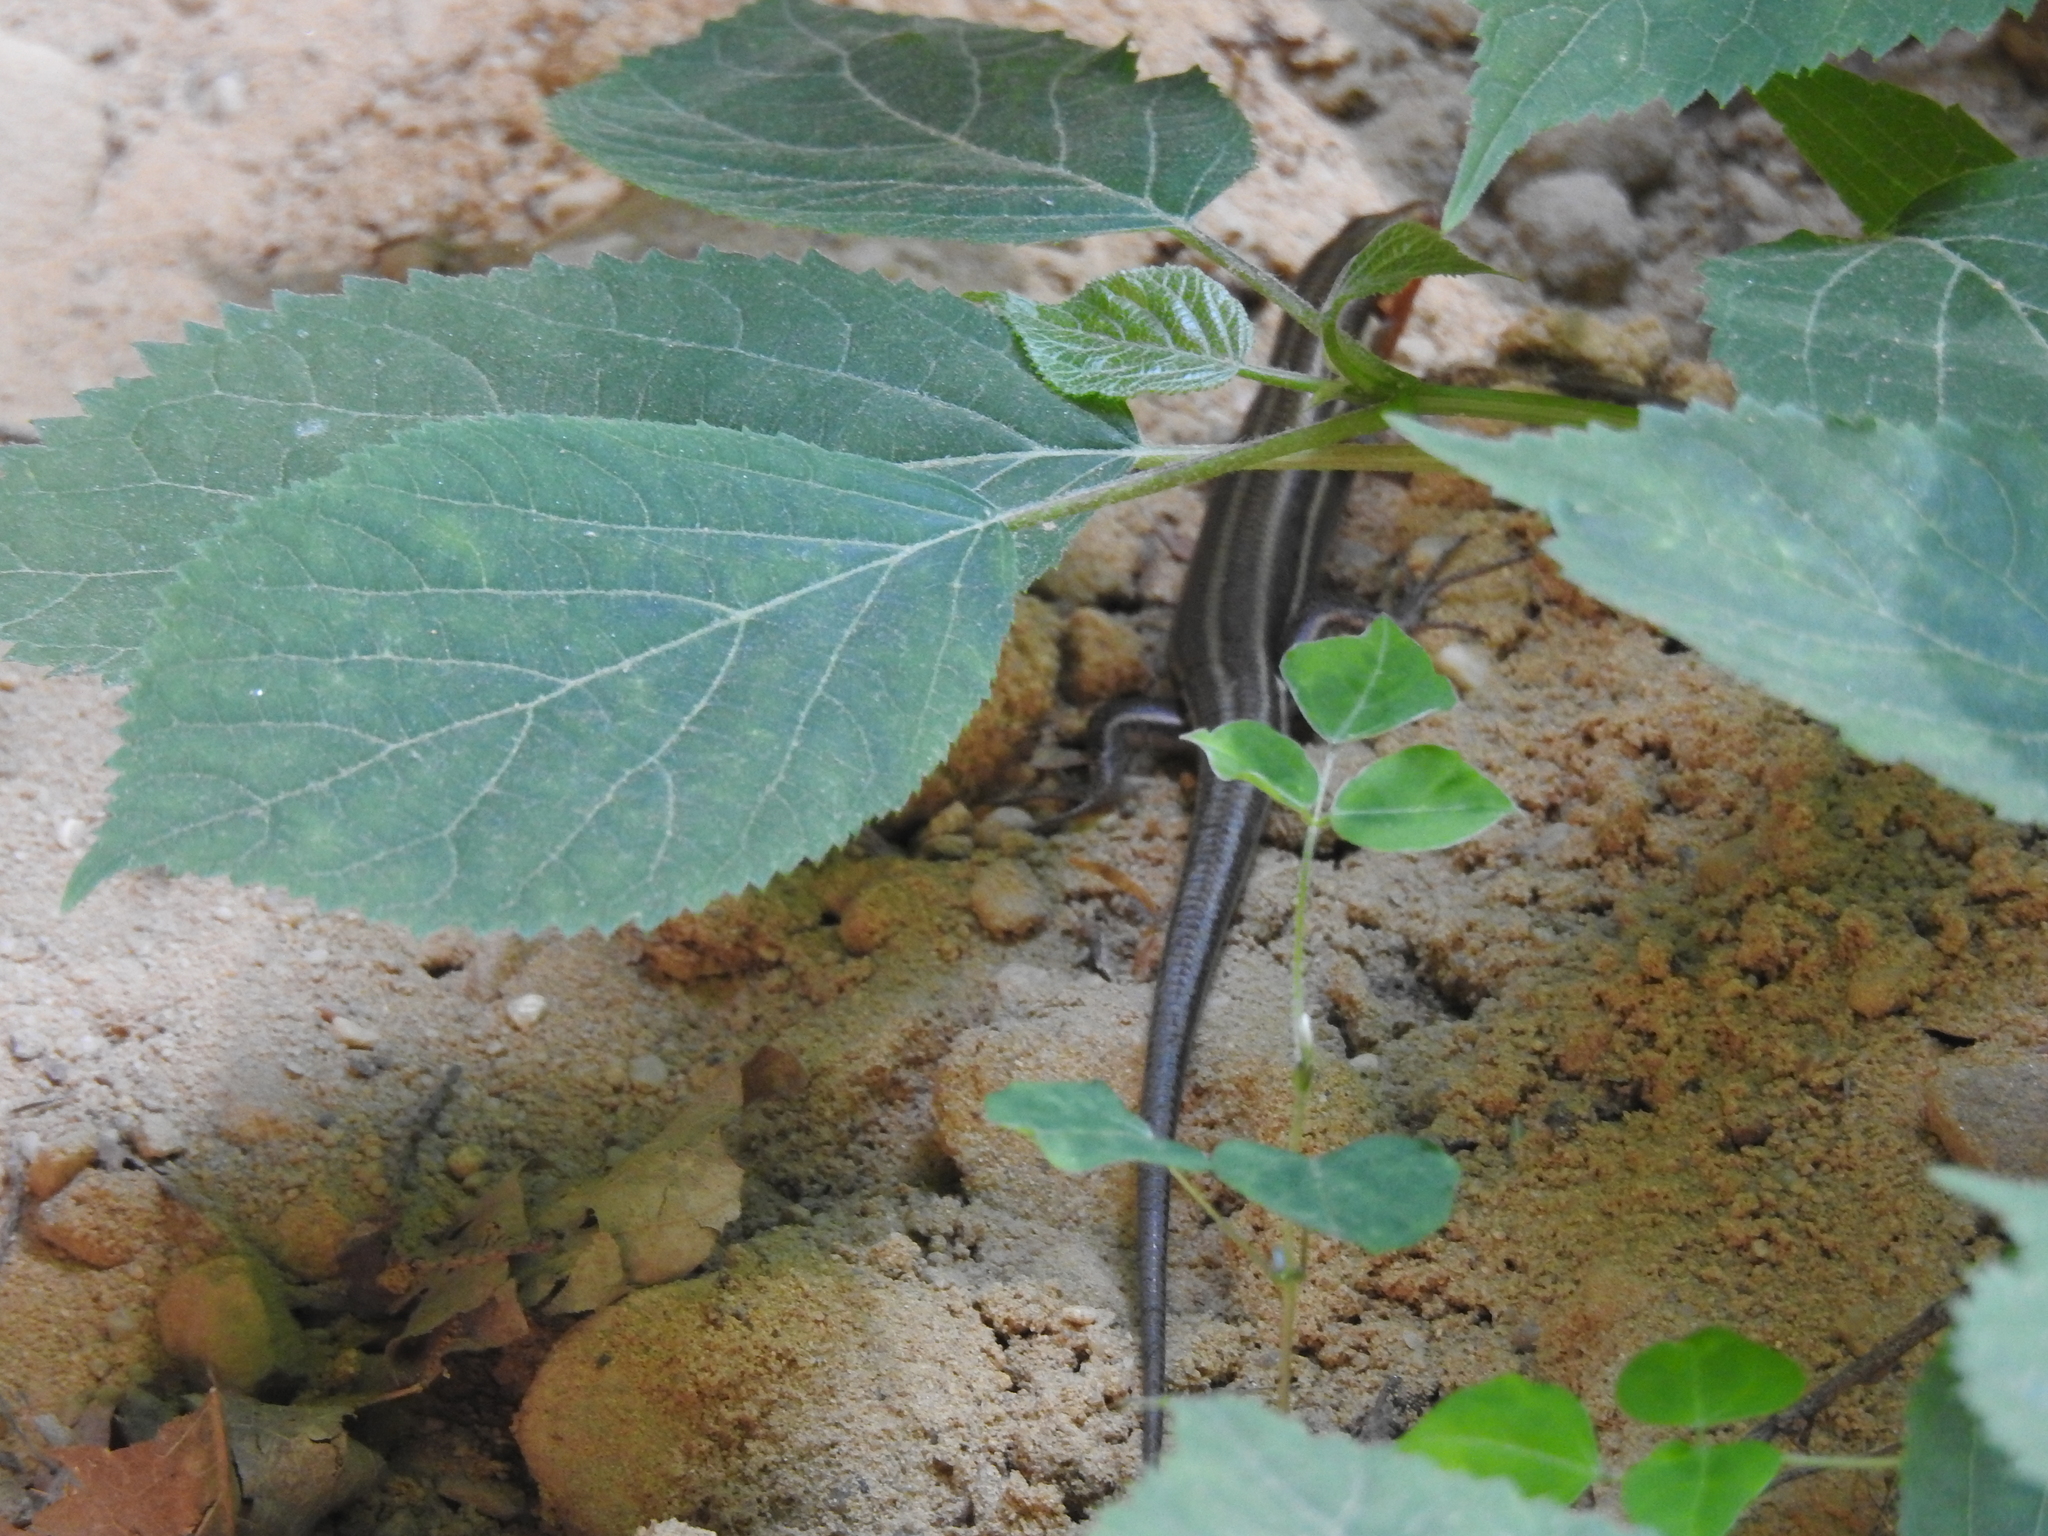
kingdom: Animalia
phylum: Chordata
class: Squamata
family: Scincidae
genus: Plestiodon
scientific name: Plestiodon fasciatus
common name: Five-lined skink
